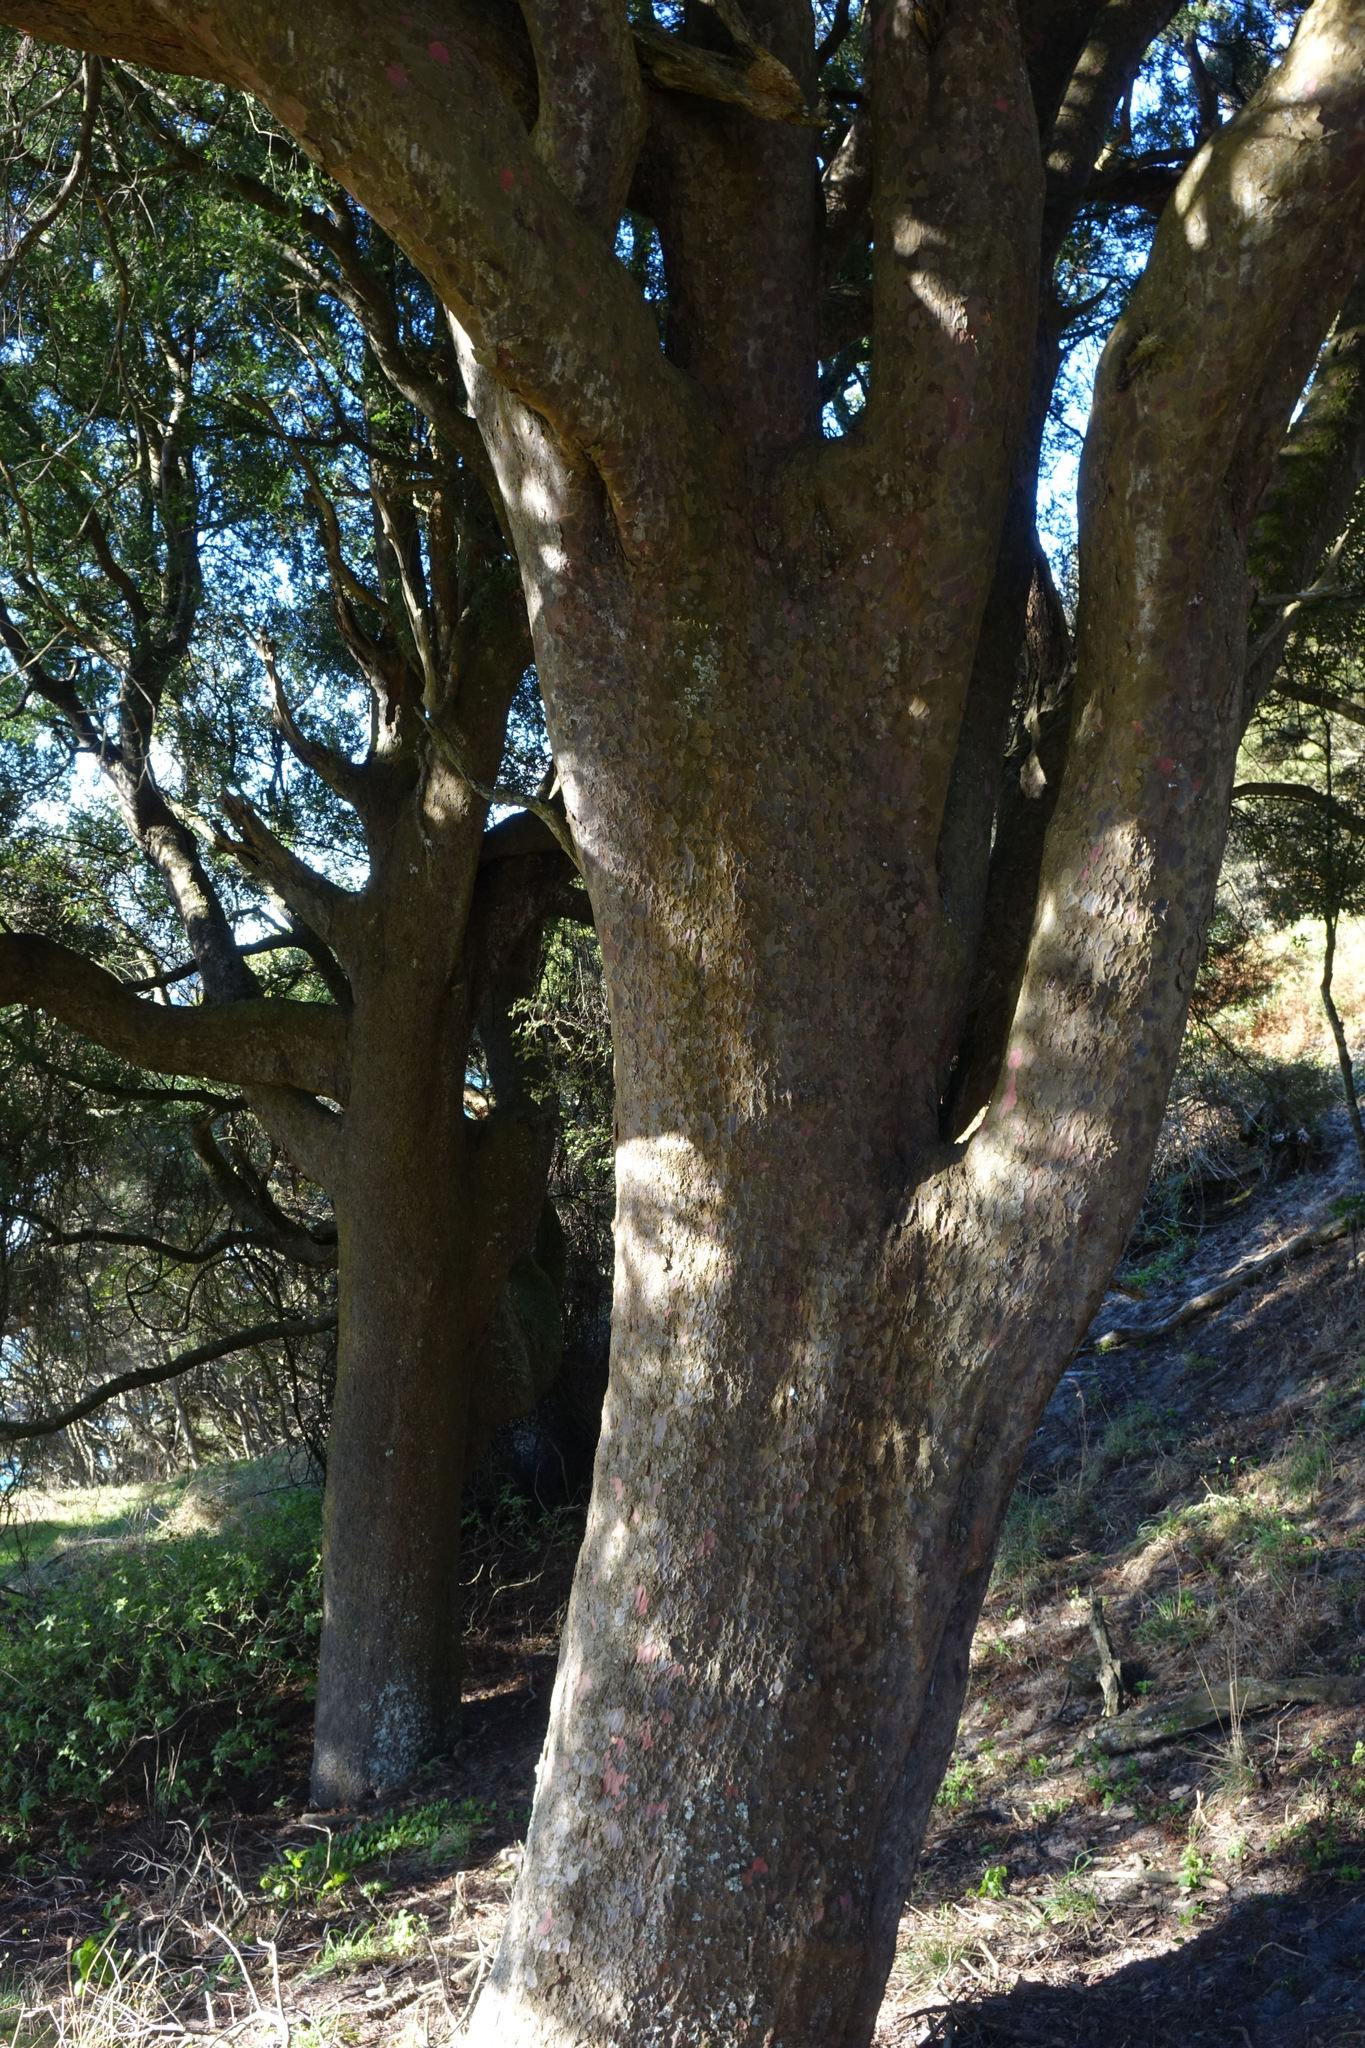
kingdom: Plantae
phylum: Tracheophyta
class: Pinopsida
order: Pinales
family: Podocarpaceae
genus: Prumnopitys
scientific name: Prumnopitys taxifolia
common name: Matai
